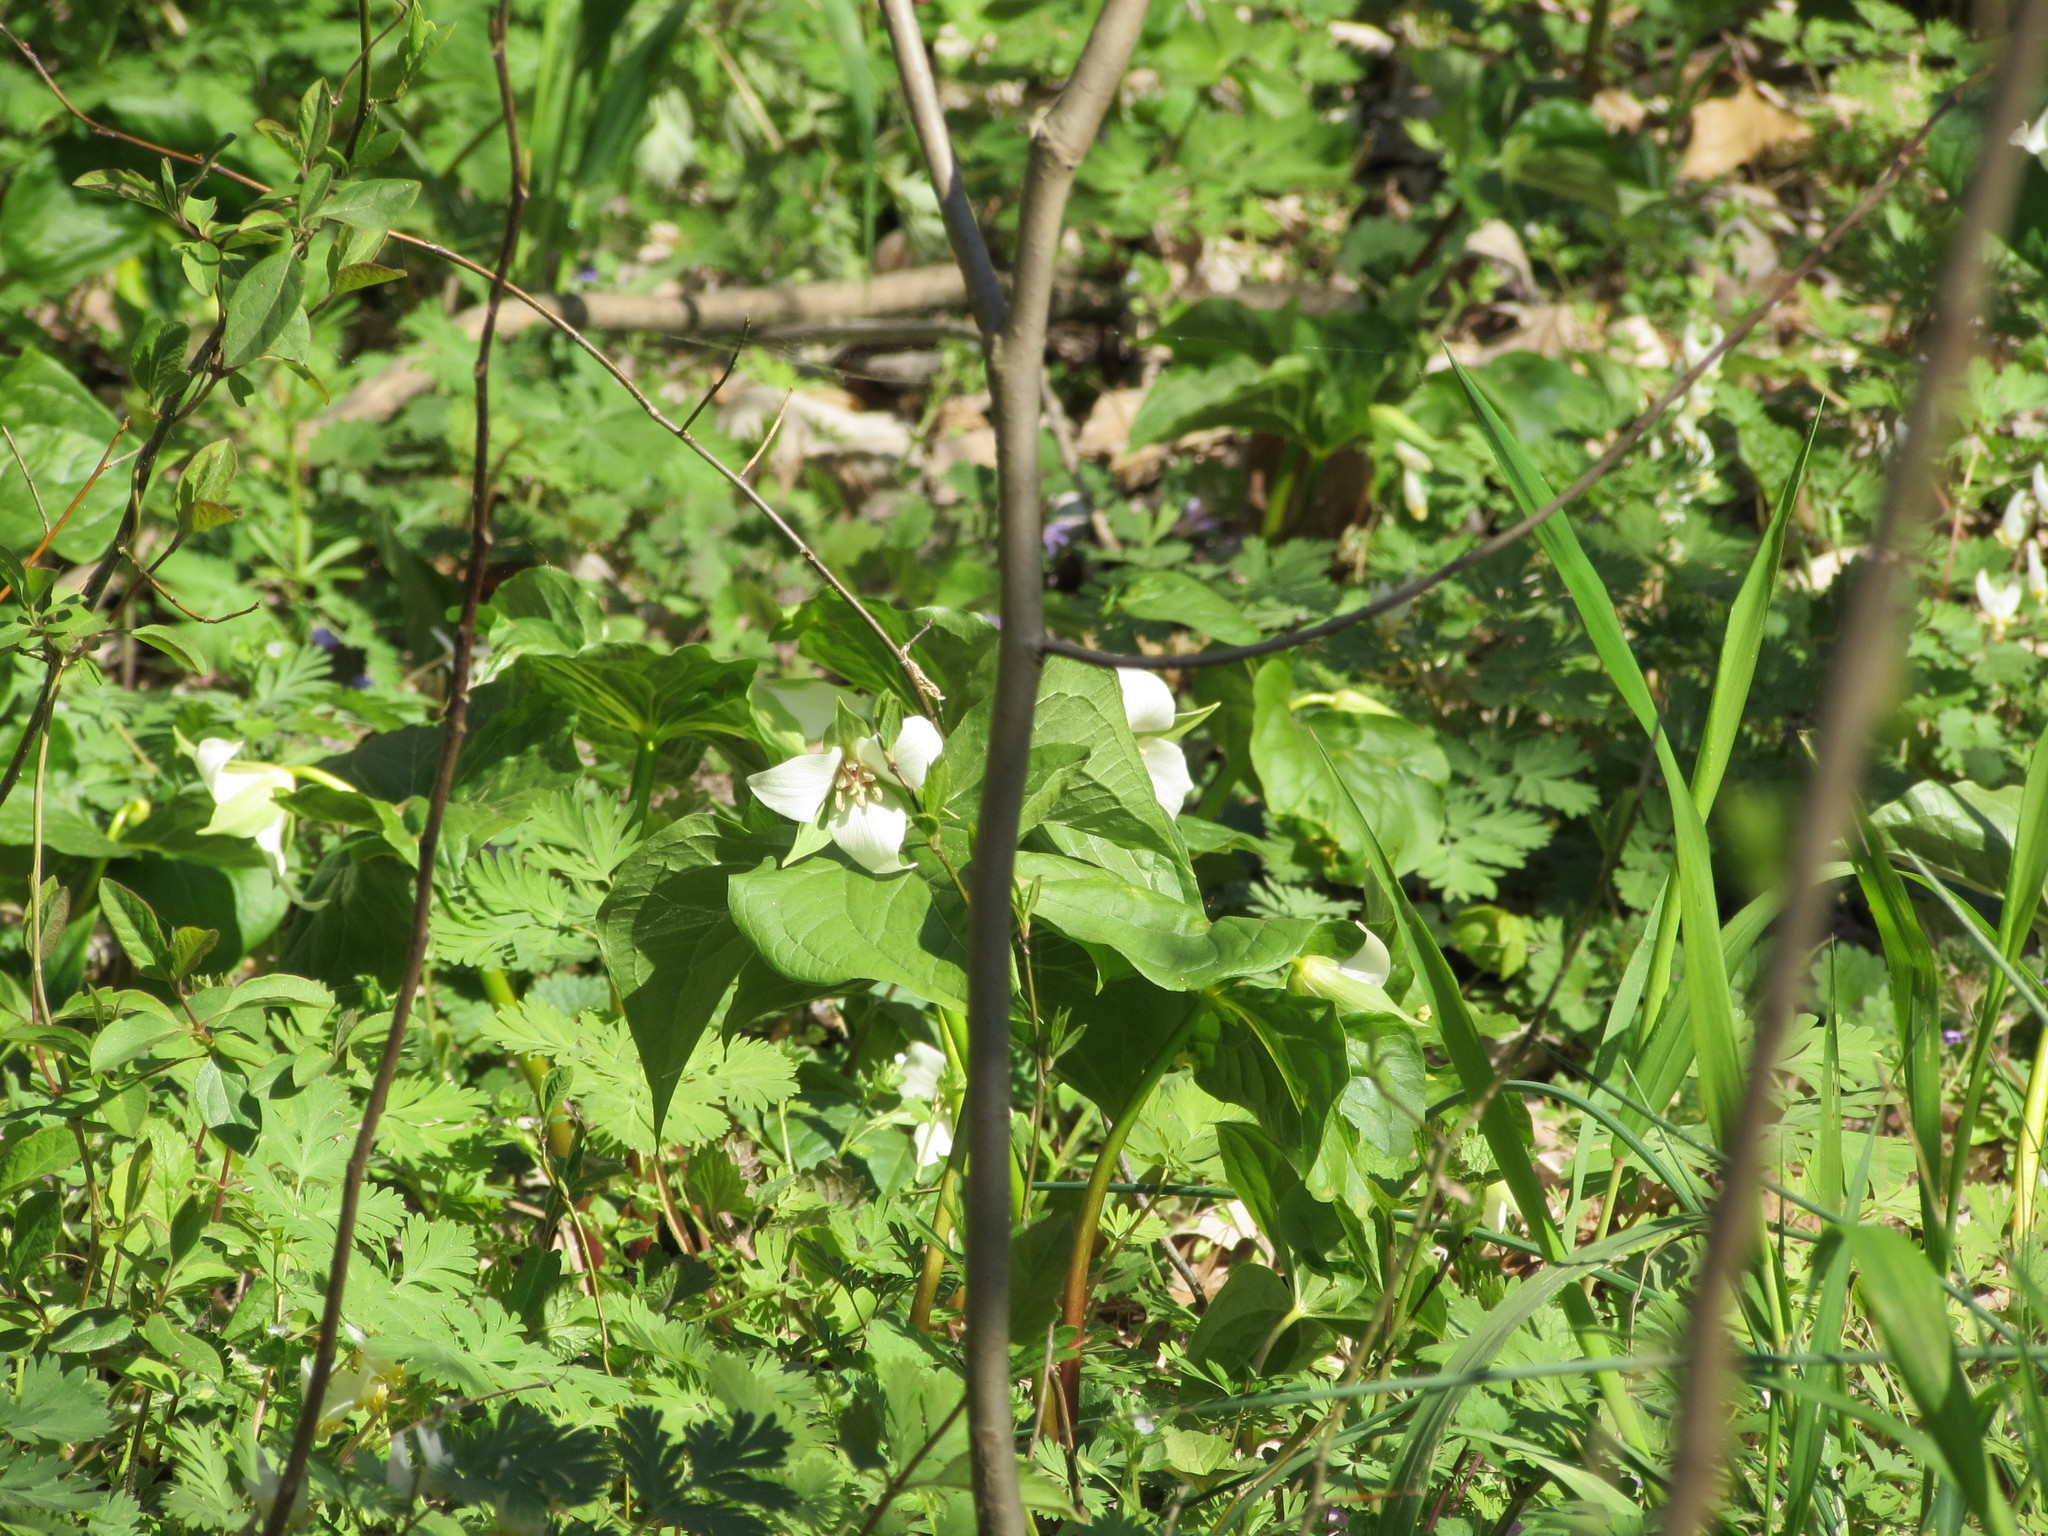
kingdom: Plantae
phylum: Tracheophyta
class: Liliopsida
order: Liliales
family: Melanthiaceae
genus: Trillium
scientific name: Trillium flexipes
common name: Drooping trillium
